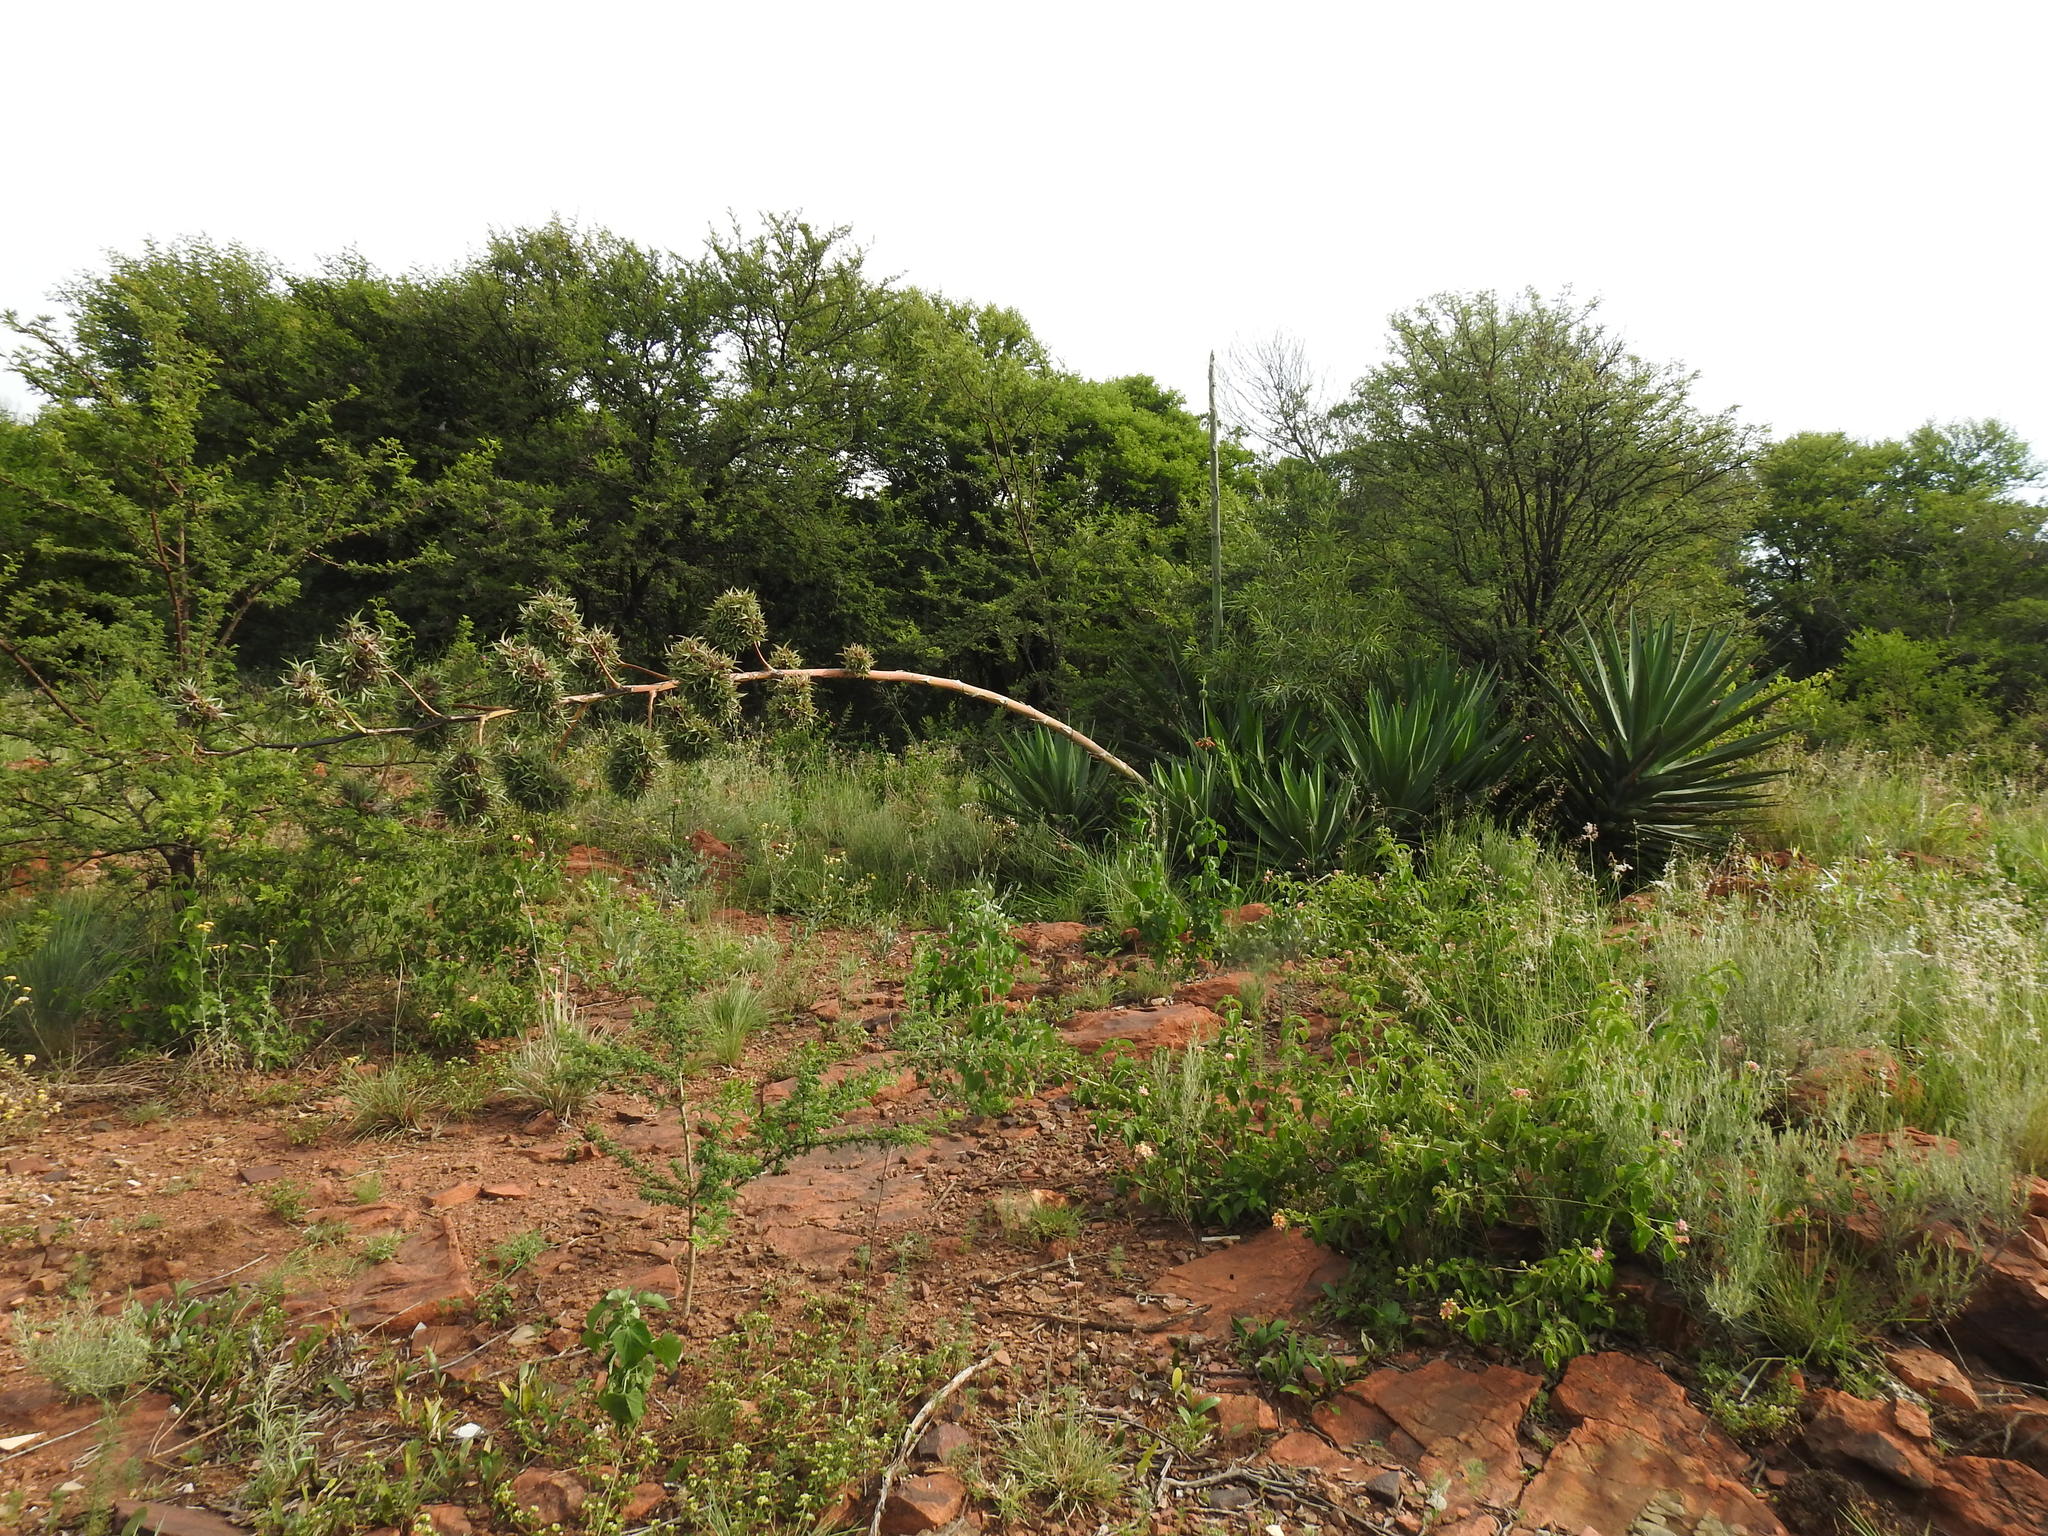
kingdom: Plantae
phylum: Tracheophyta
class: Liliopsida
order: Asparagales
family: Asparagaceae
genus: Agave
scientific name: Agave sisalana
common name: Sisal hemp
